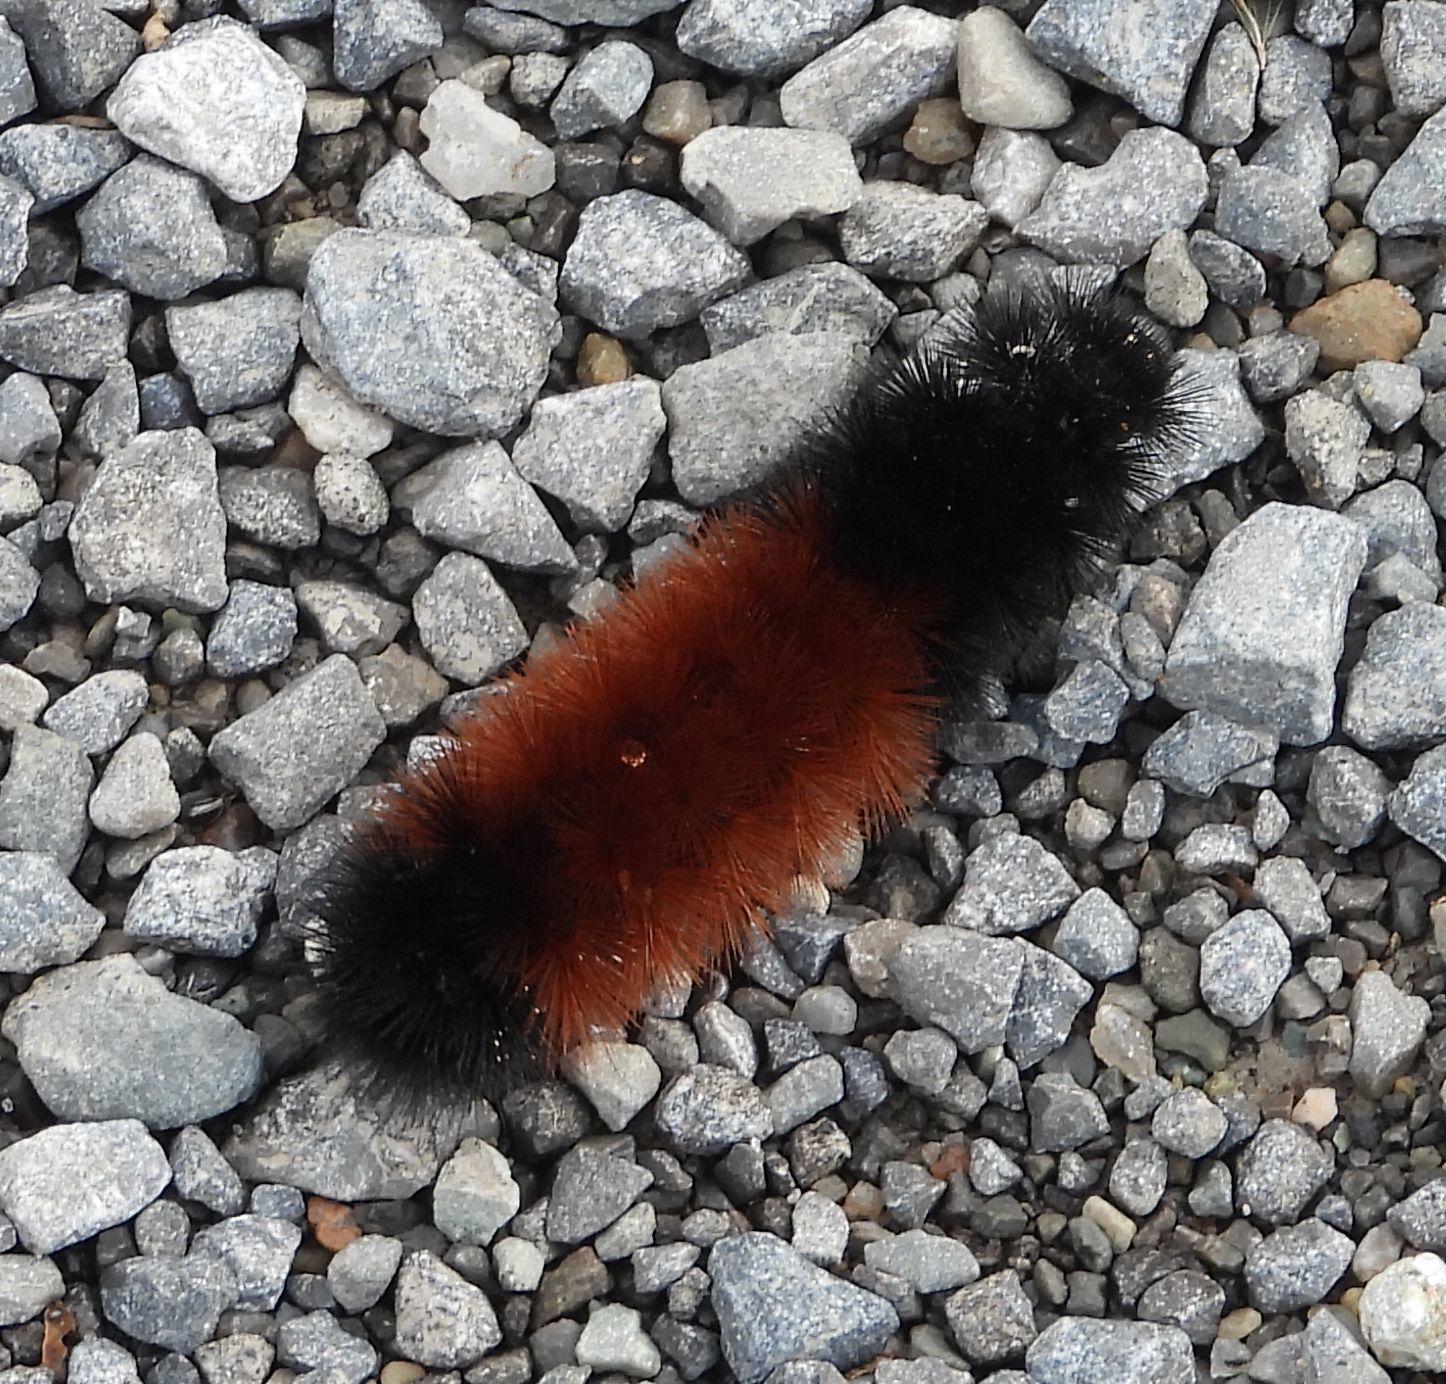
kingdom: Animalia
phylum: Arthropoda
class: Insecta
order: Lepidoptera
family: Erebidae
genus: Pyrrharctia
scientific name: Pyrrharctia isabella
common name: Isabella tiger moth
